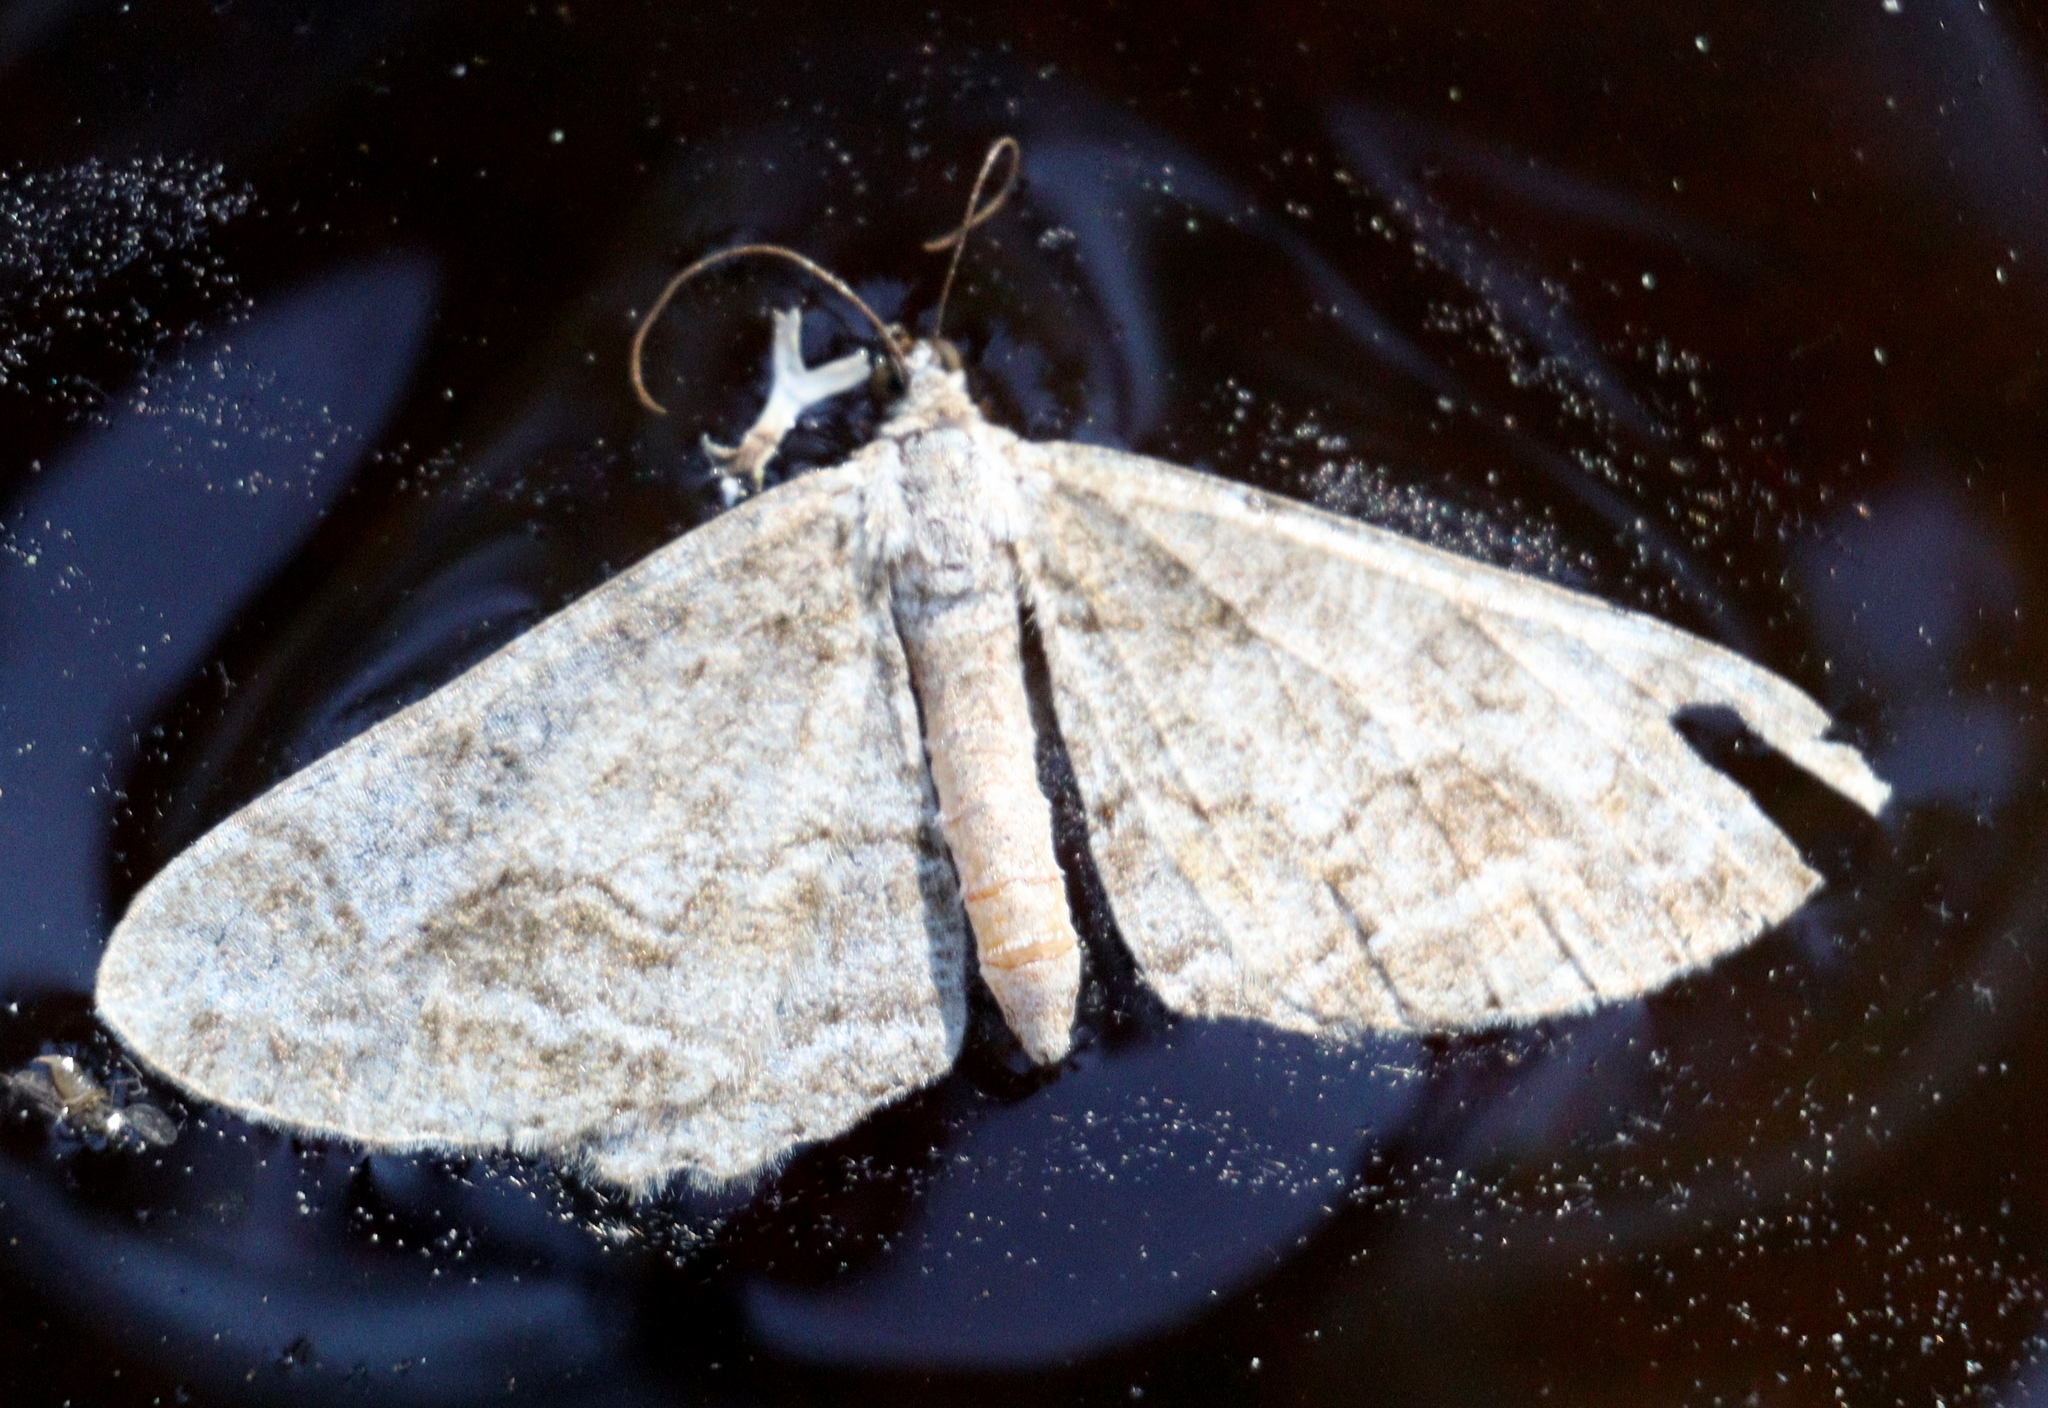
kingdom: Animalia
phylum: Arthropoda
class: Insecta
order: Lepidoptera
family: Geometridae
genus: Alcis
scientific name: Alcis repandata
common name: Mottled beauty
